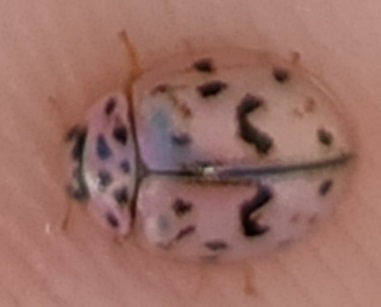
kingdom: Animalia
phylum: Arthropoda
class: Insecta
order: Coleoptera
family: Coccinellidae
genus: Oenopia
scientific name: Oenopia doublieri
